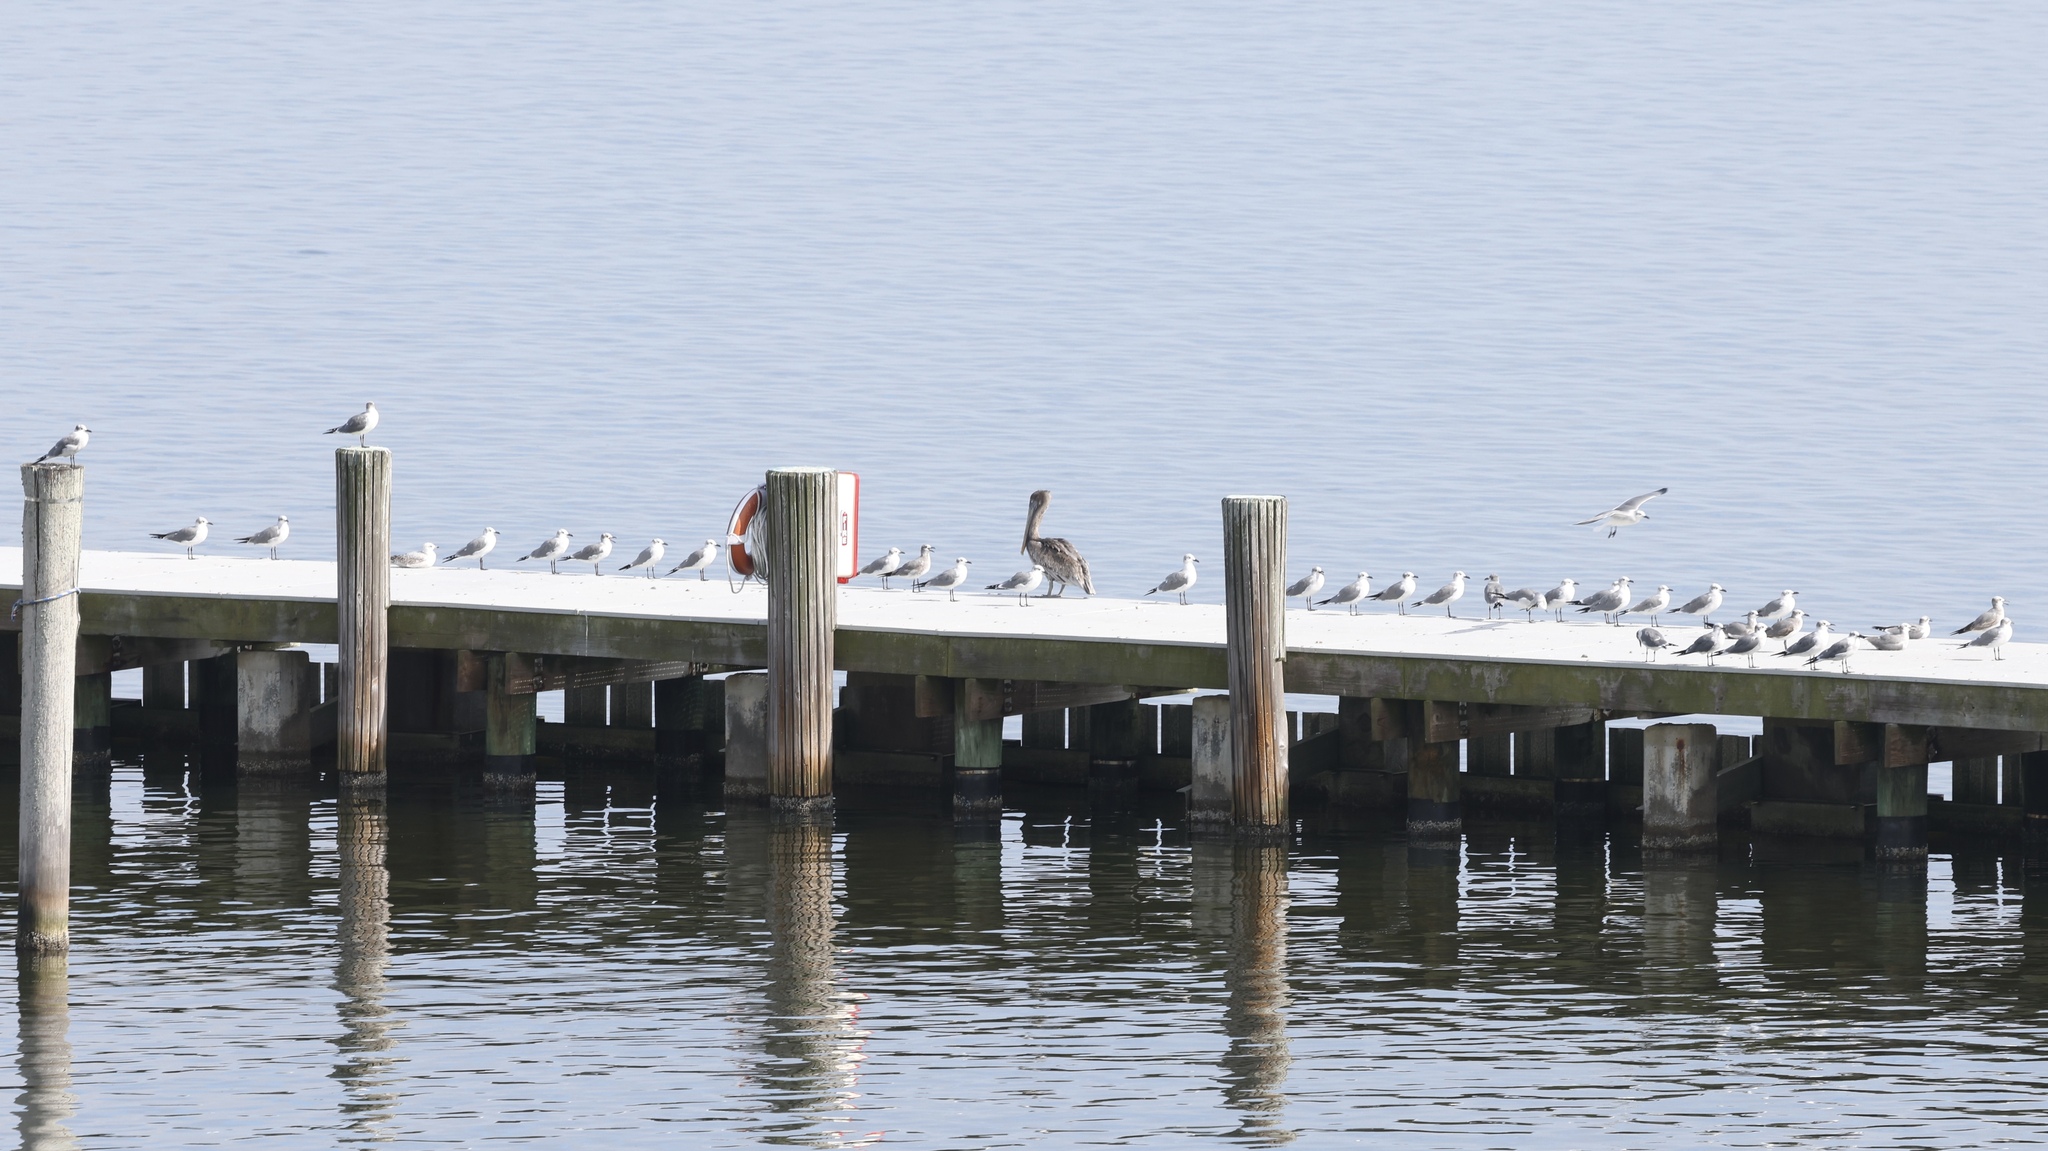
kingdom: Animalia
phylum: Chordata
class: Aves
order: Charadriiformes
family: Laridae
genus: Leucophaeus
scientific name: Leucophaeus atricilla
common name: Laughing gull
